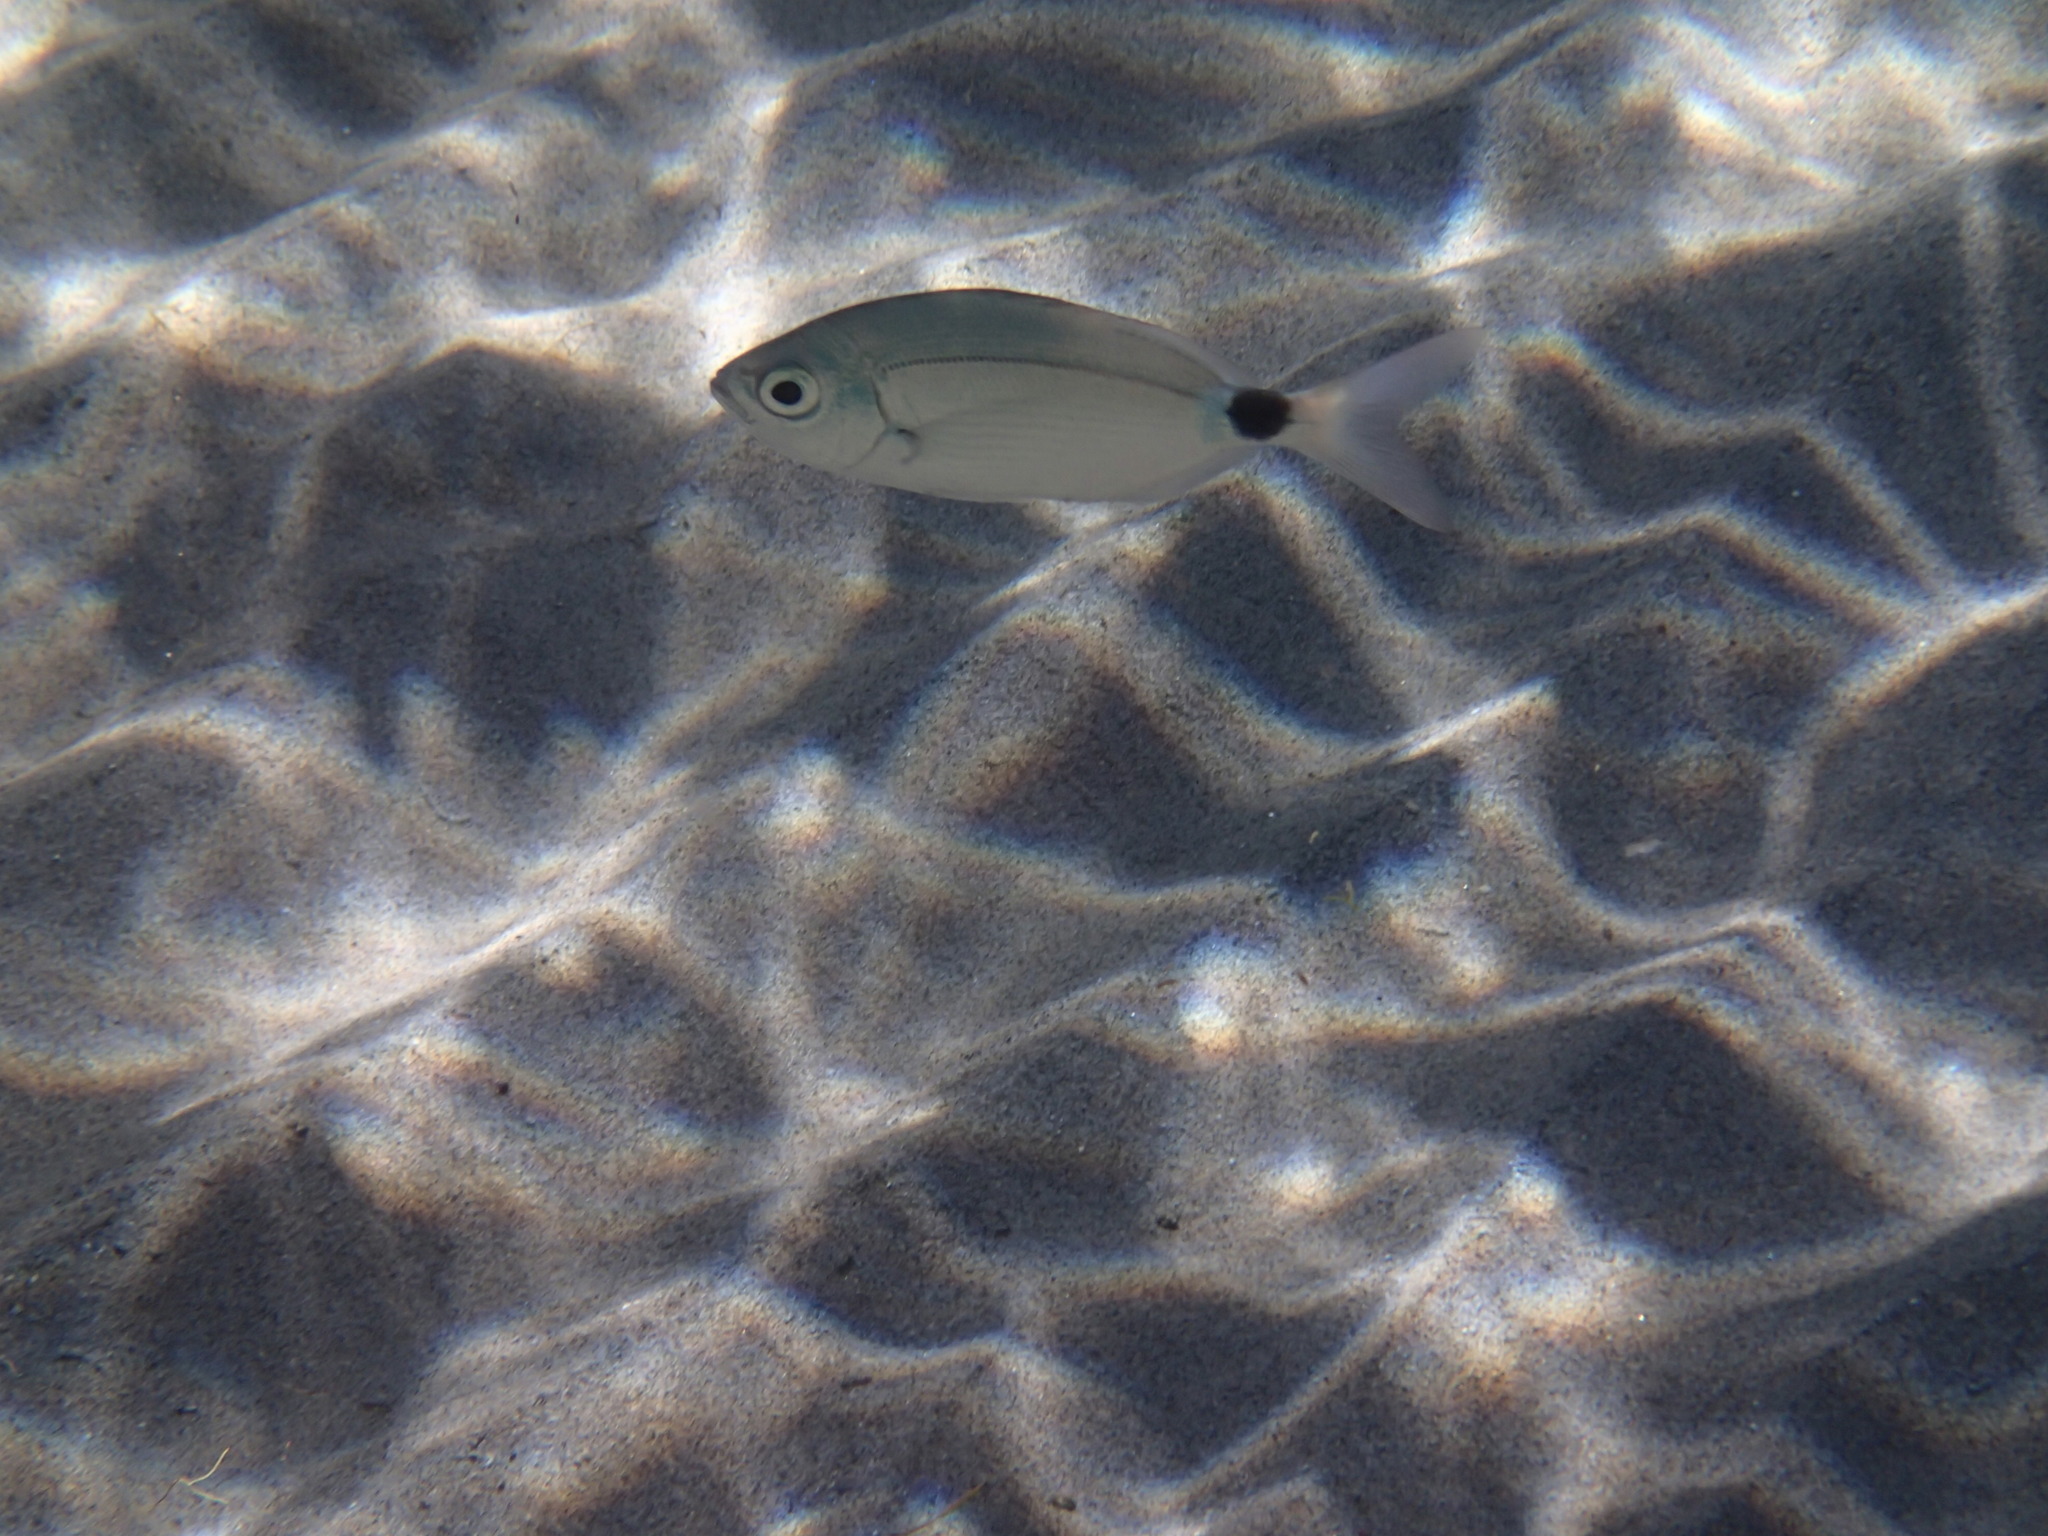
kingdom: Animalia
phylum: Chordata
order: Perciformes
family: Sparidae
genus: Oblada
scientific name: Oblada melanura
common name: Saddled seabream
